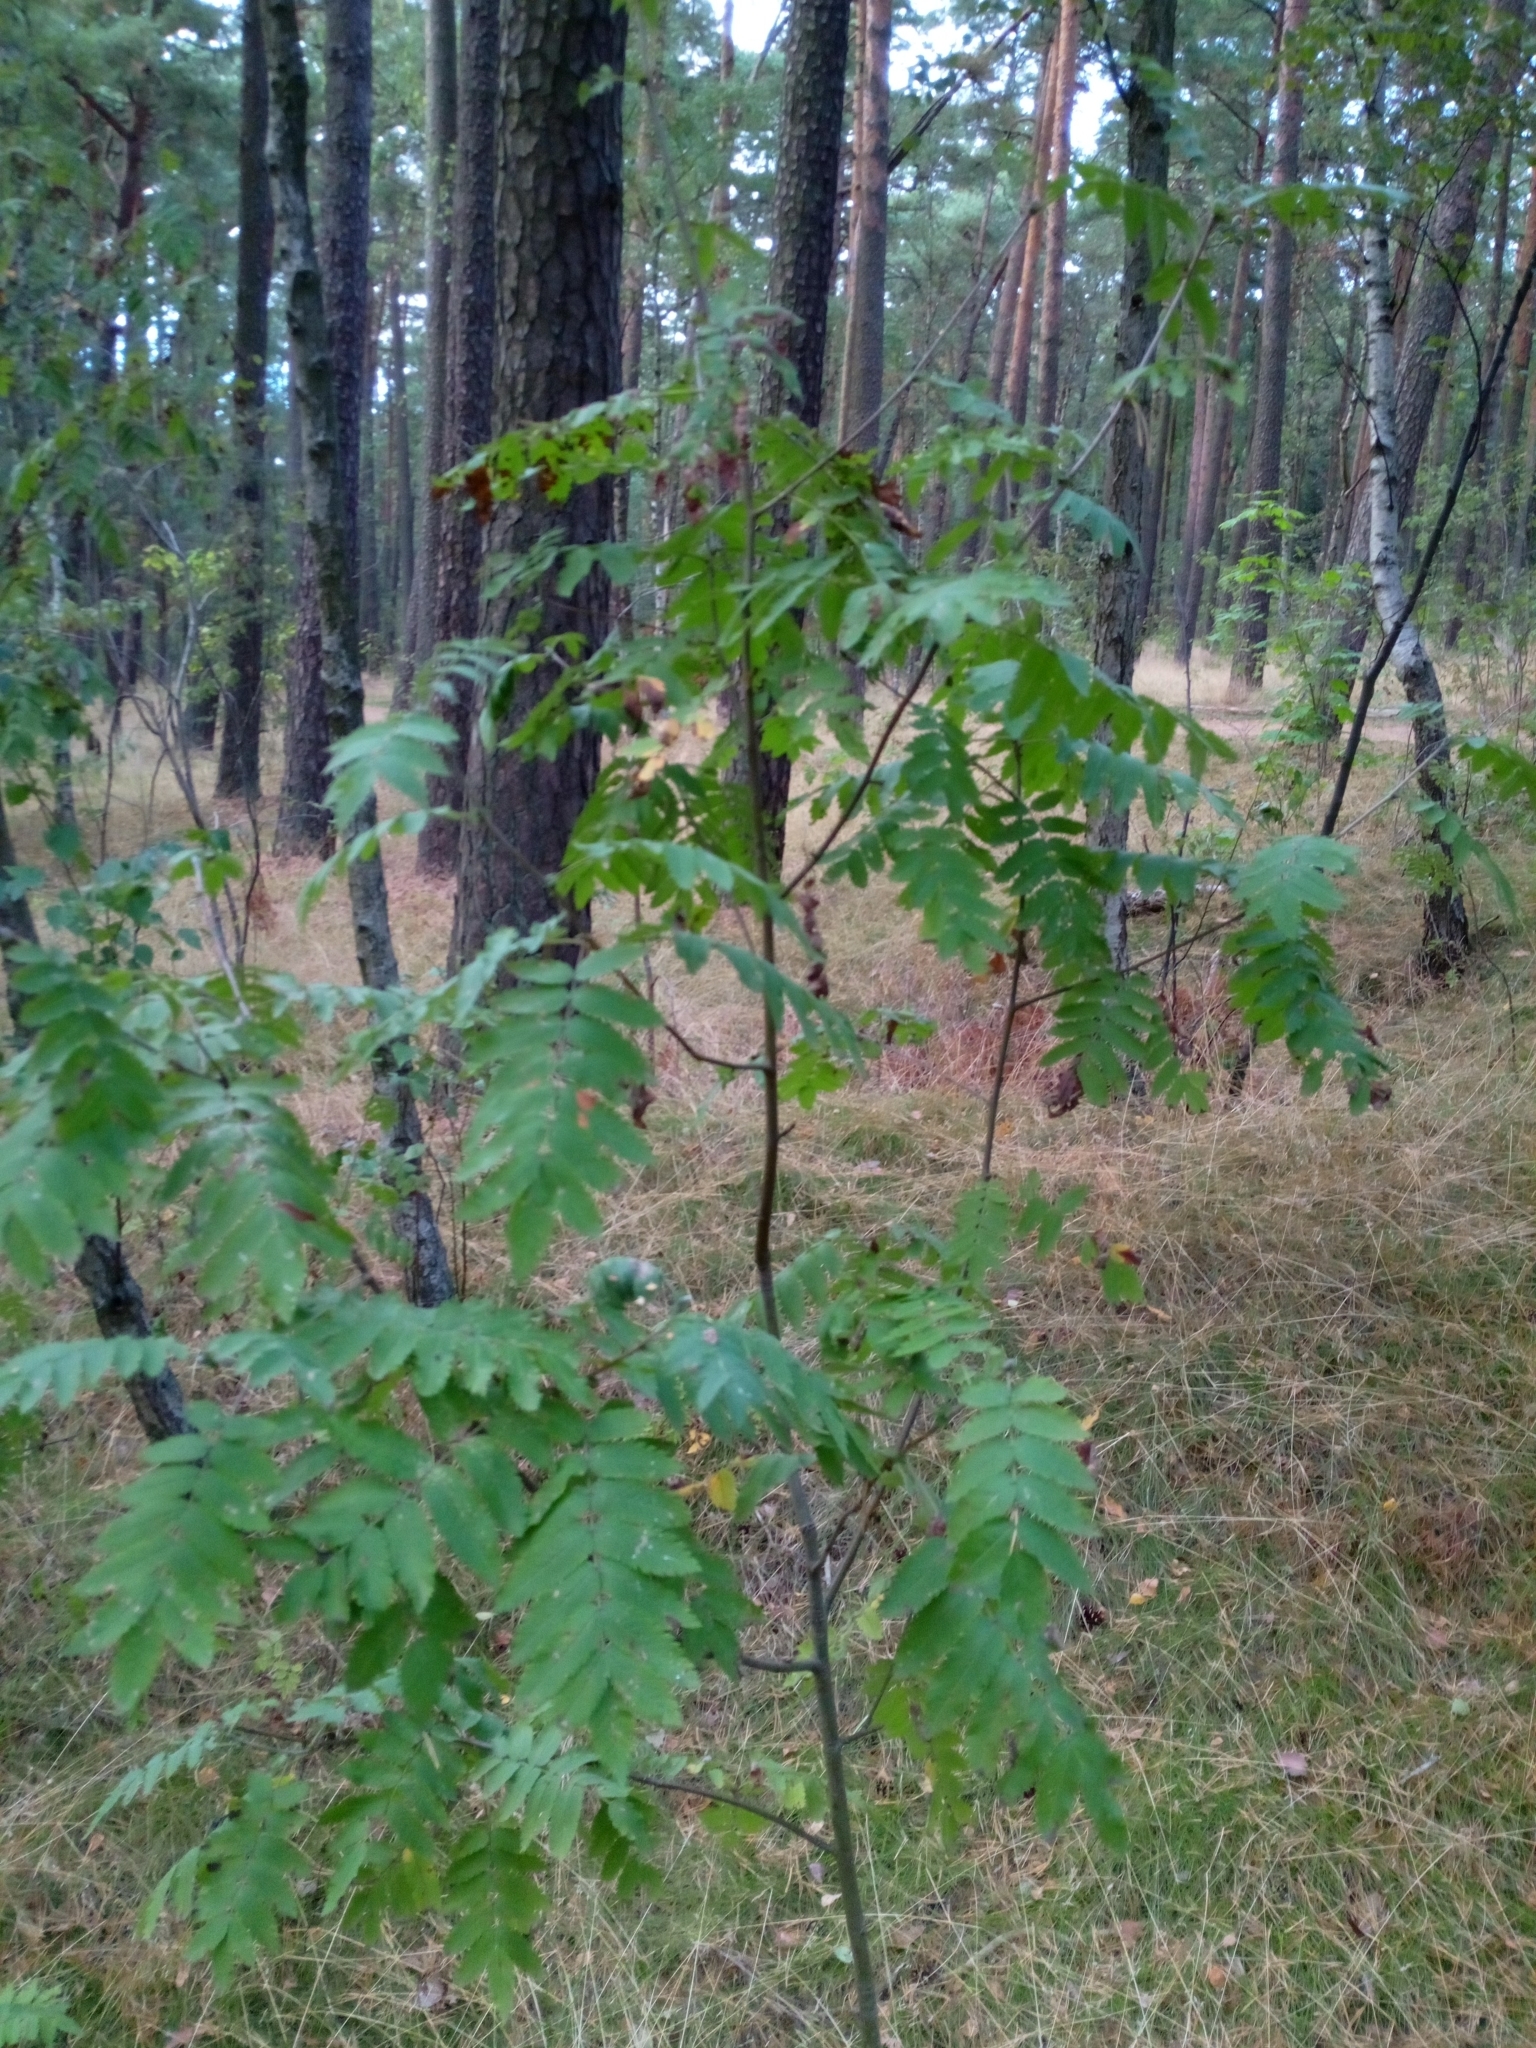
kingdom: Plantae
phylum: Tracheophyta
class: Magnoliopsida
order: Rosales
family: Rosaceae
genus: Sorbus
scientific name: Sorbus aucuparia
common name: Rowan
